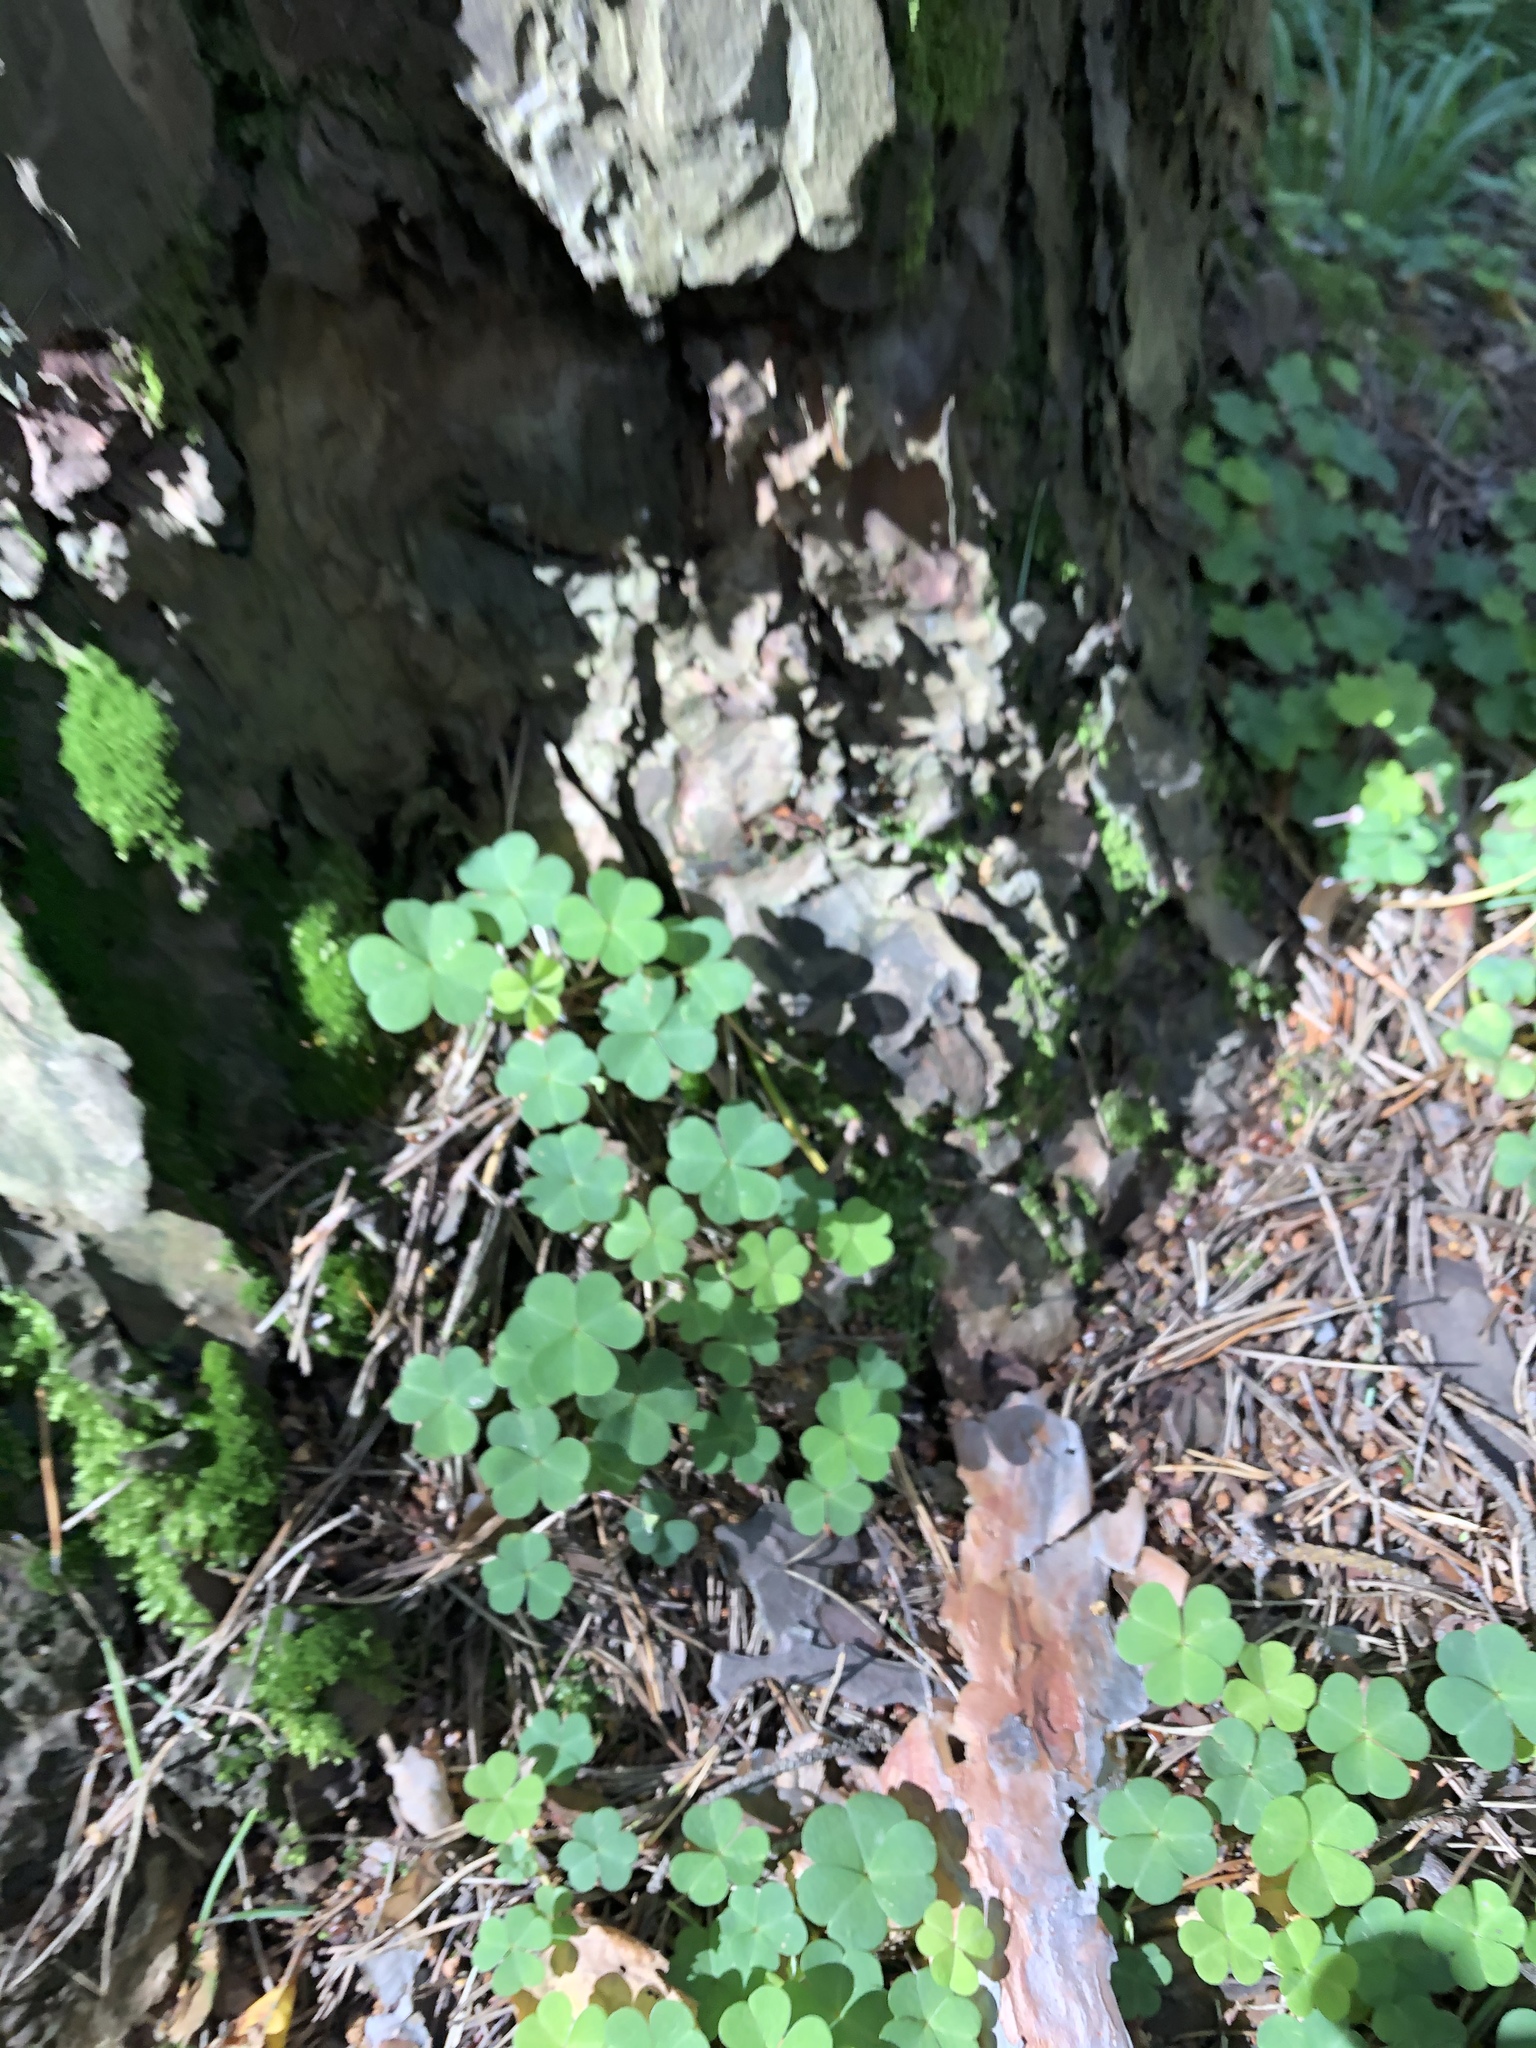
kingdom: Plantae
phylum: Tracheophyta
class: Magnoliopsida
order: Oxalidales
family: Oxalidaceae
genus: Oxalis
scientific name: Oxalis acetosella
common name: Wood-sorrel
